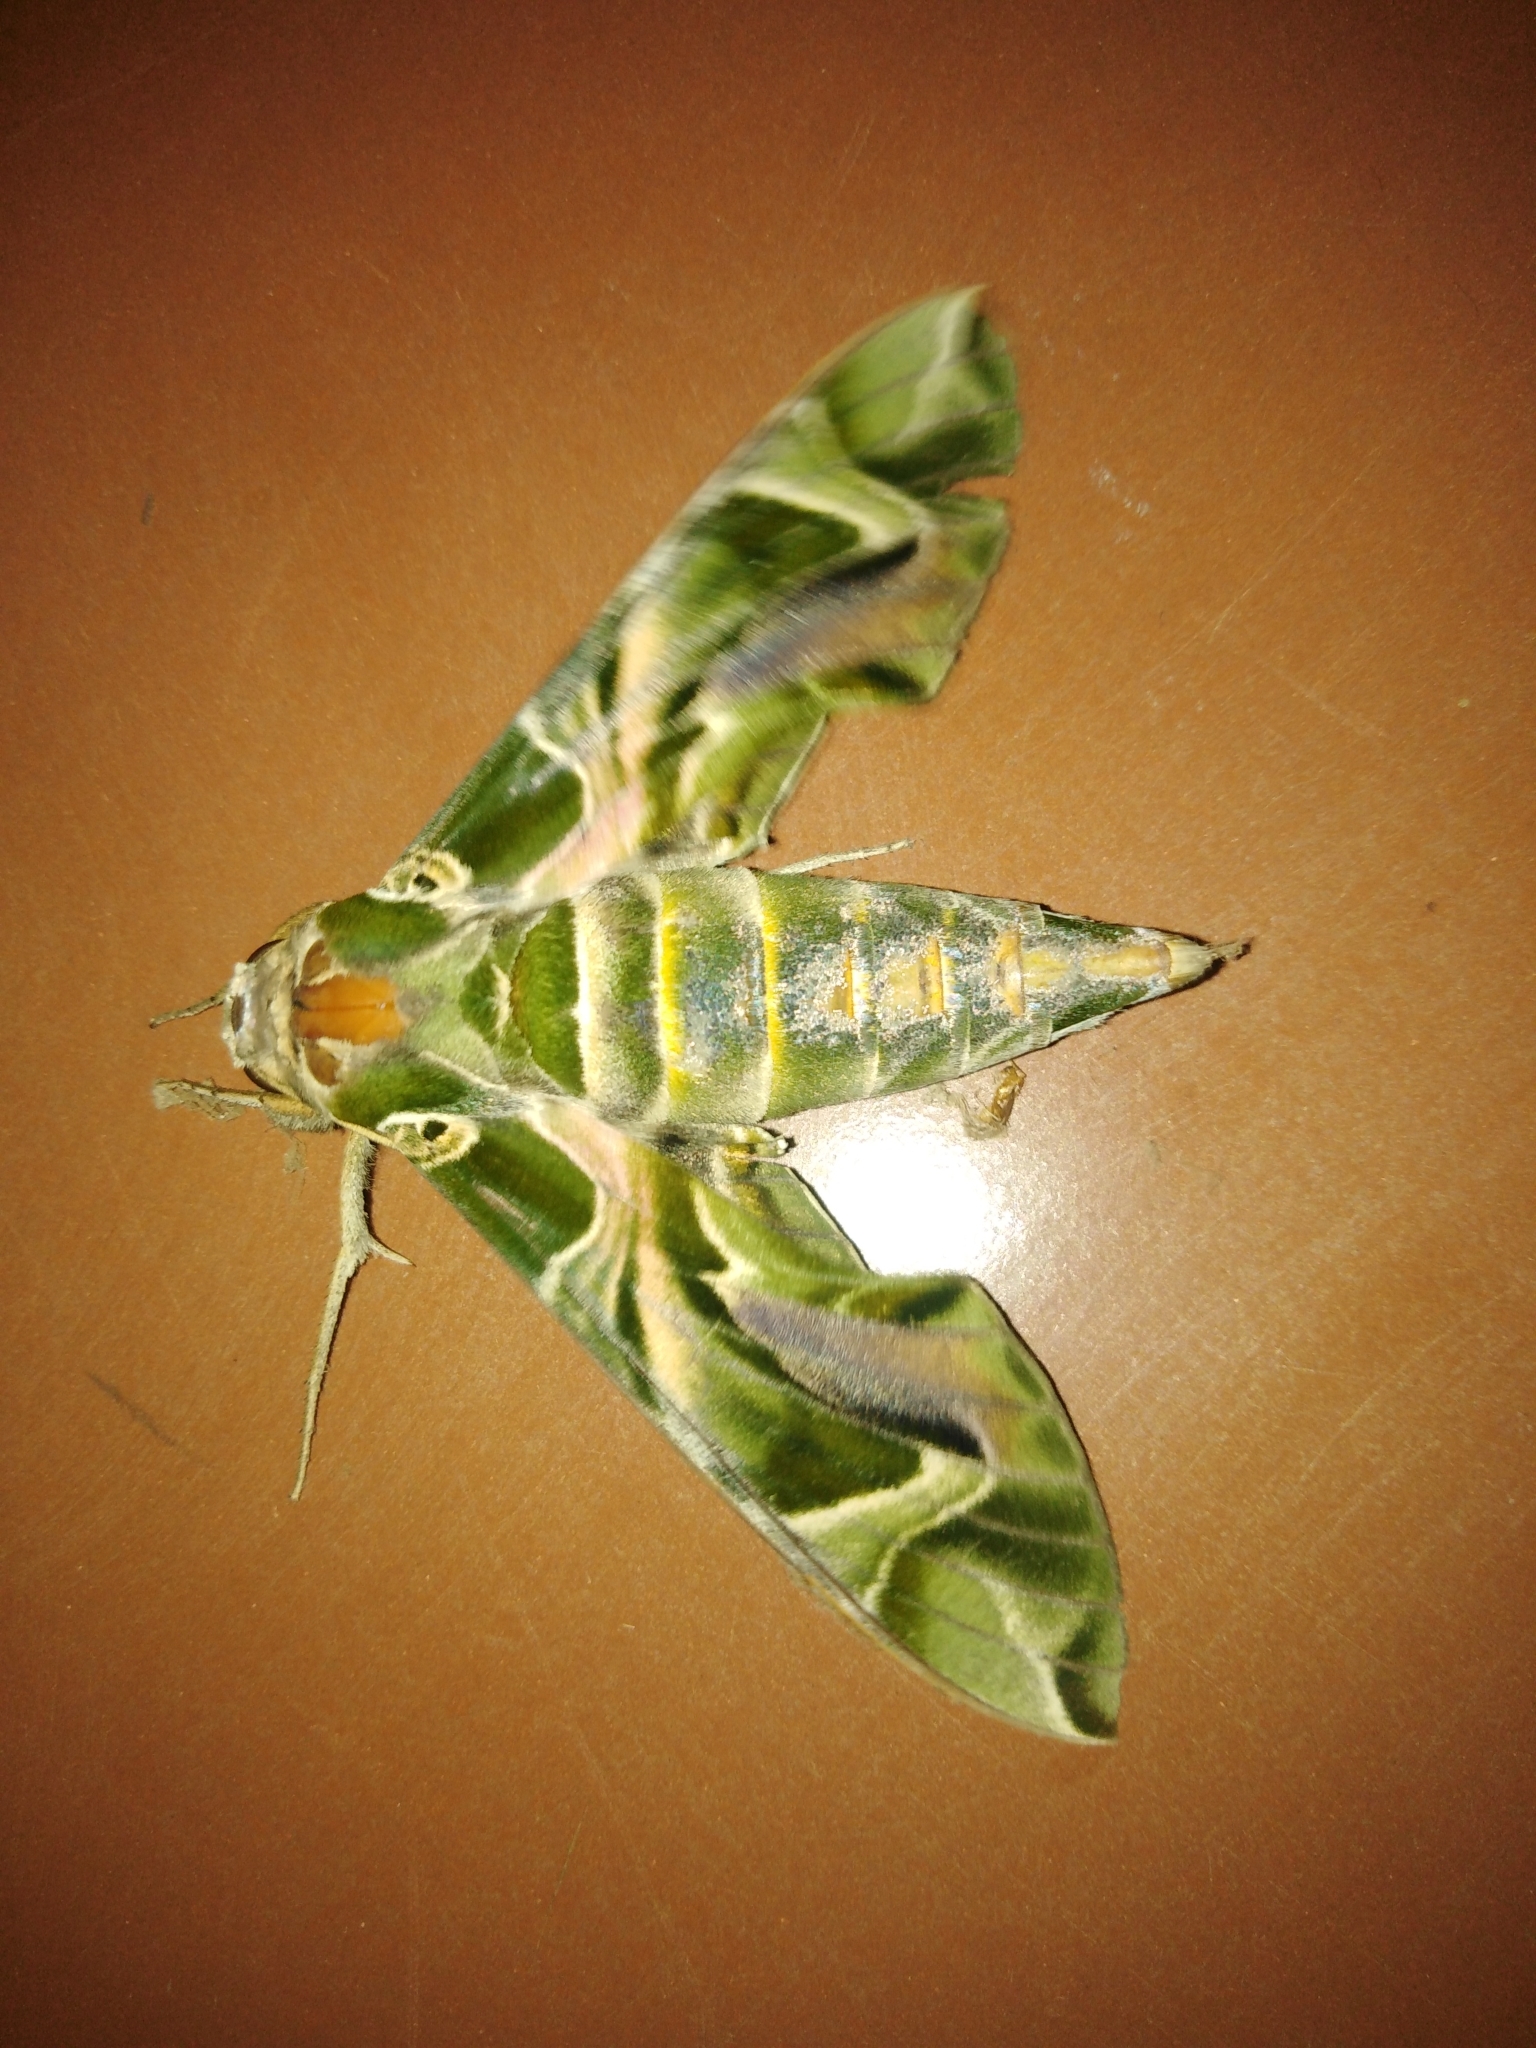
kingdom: Animalia
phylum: Arthropoda
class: Insecta
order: Lepidoptera
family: Sphingidae
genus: Daphnis
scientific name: Daphnis nerii
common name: Oleander hawk-moth
